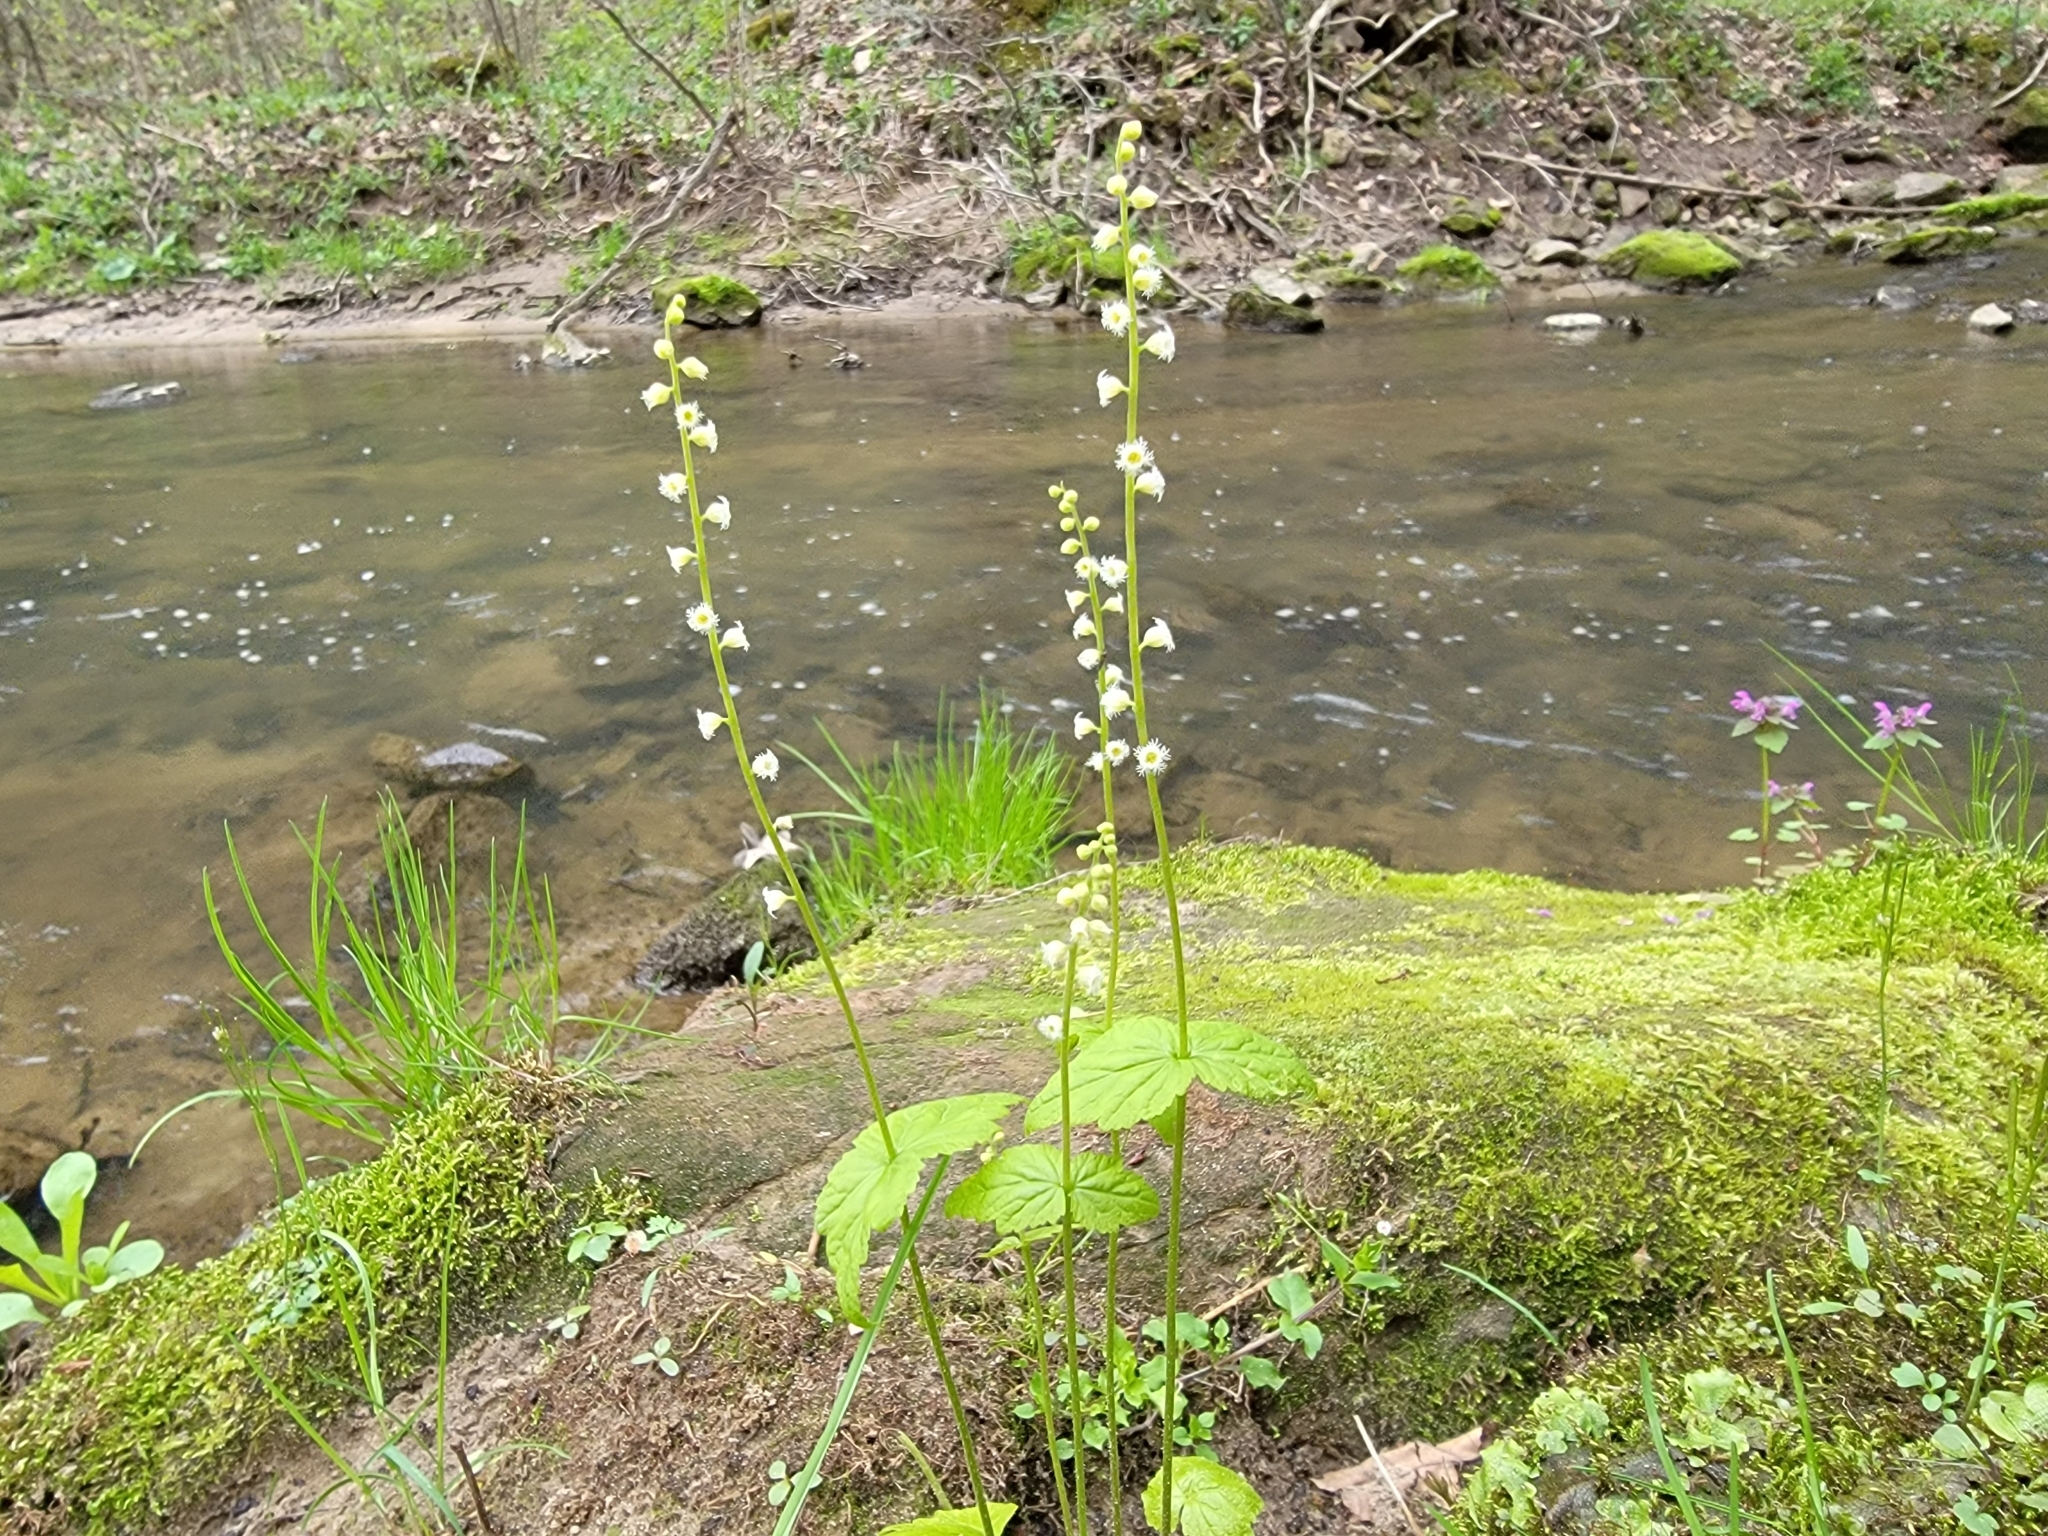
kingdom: Plantae
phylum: Tracheophyta
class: Magnoliopsida
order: Saxifragales
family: Saxifragaceae
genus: Mitella
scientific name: Mitella diphylla
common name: Coolwort
